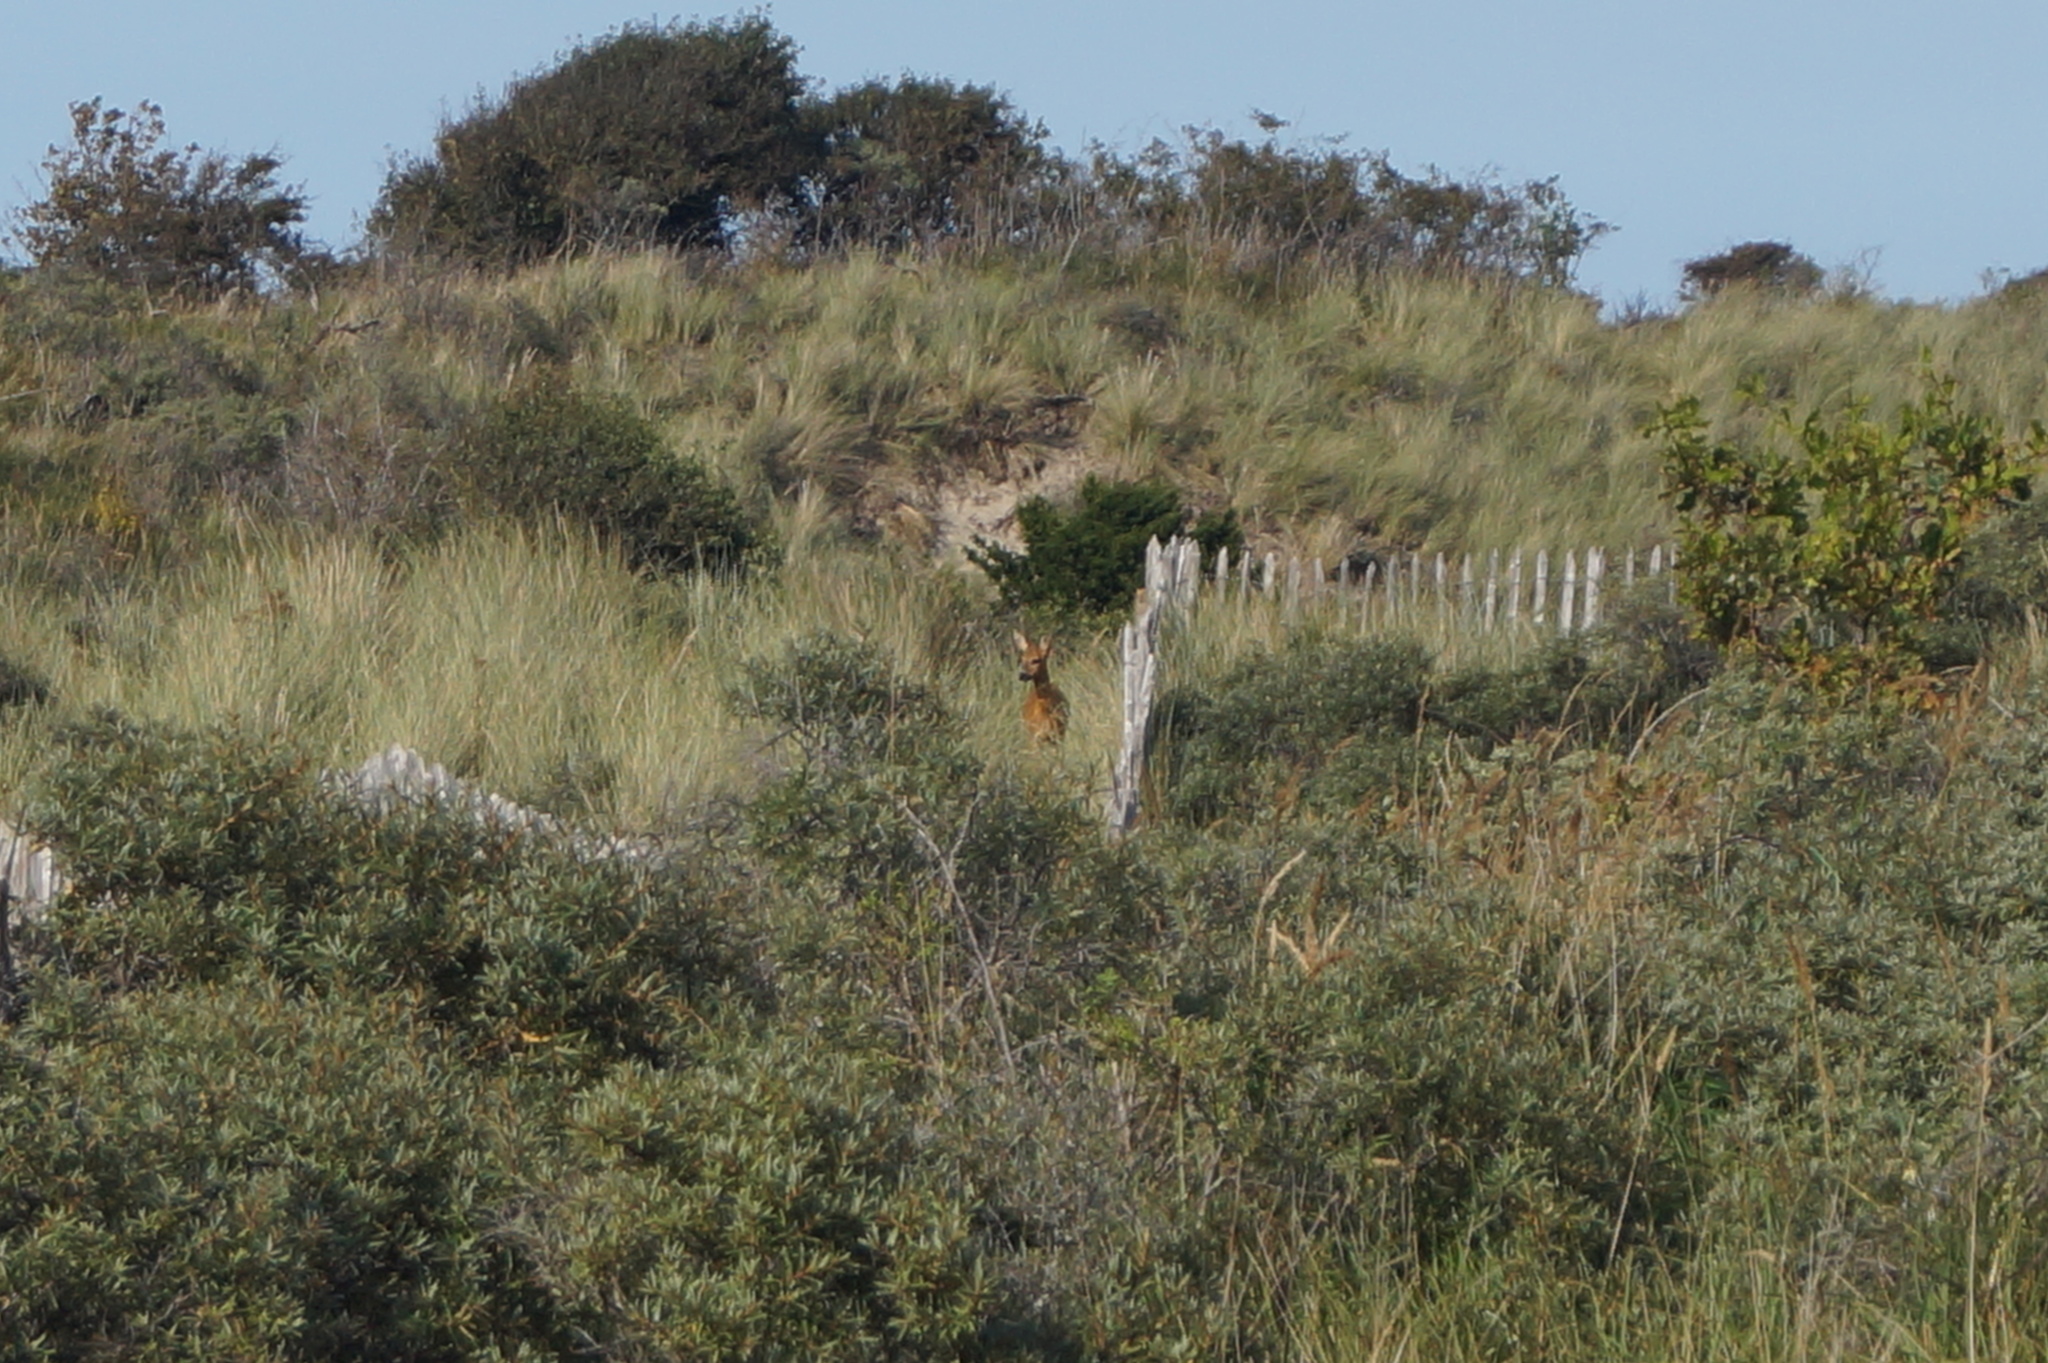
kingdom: Animalia
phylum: Chordata
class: Mammalia
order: Artiodactyla
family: Cervidae
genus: Capreolus
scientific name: Capreolus capreolus
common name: Western roe deer
